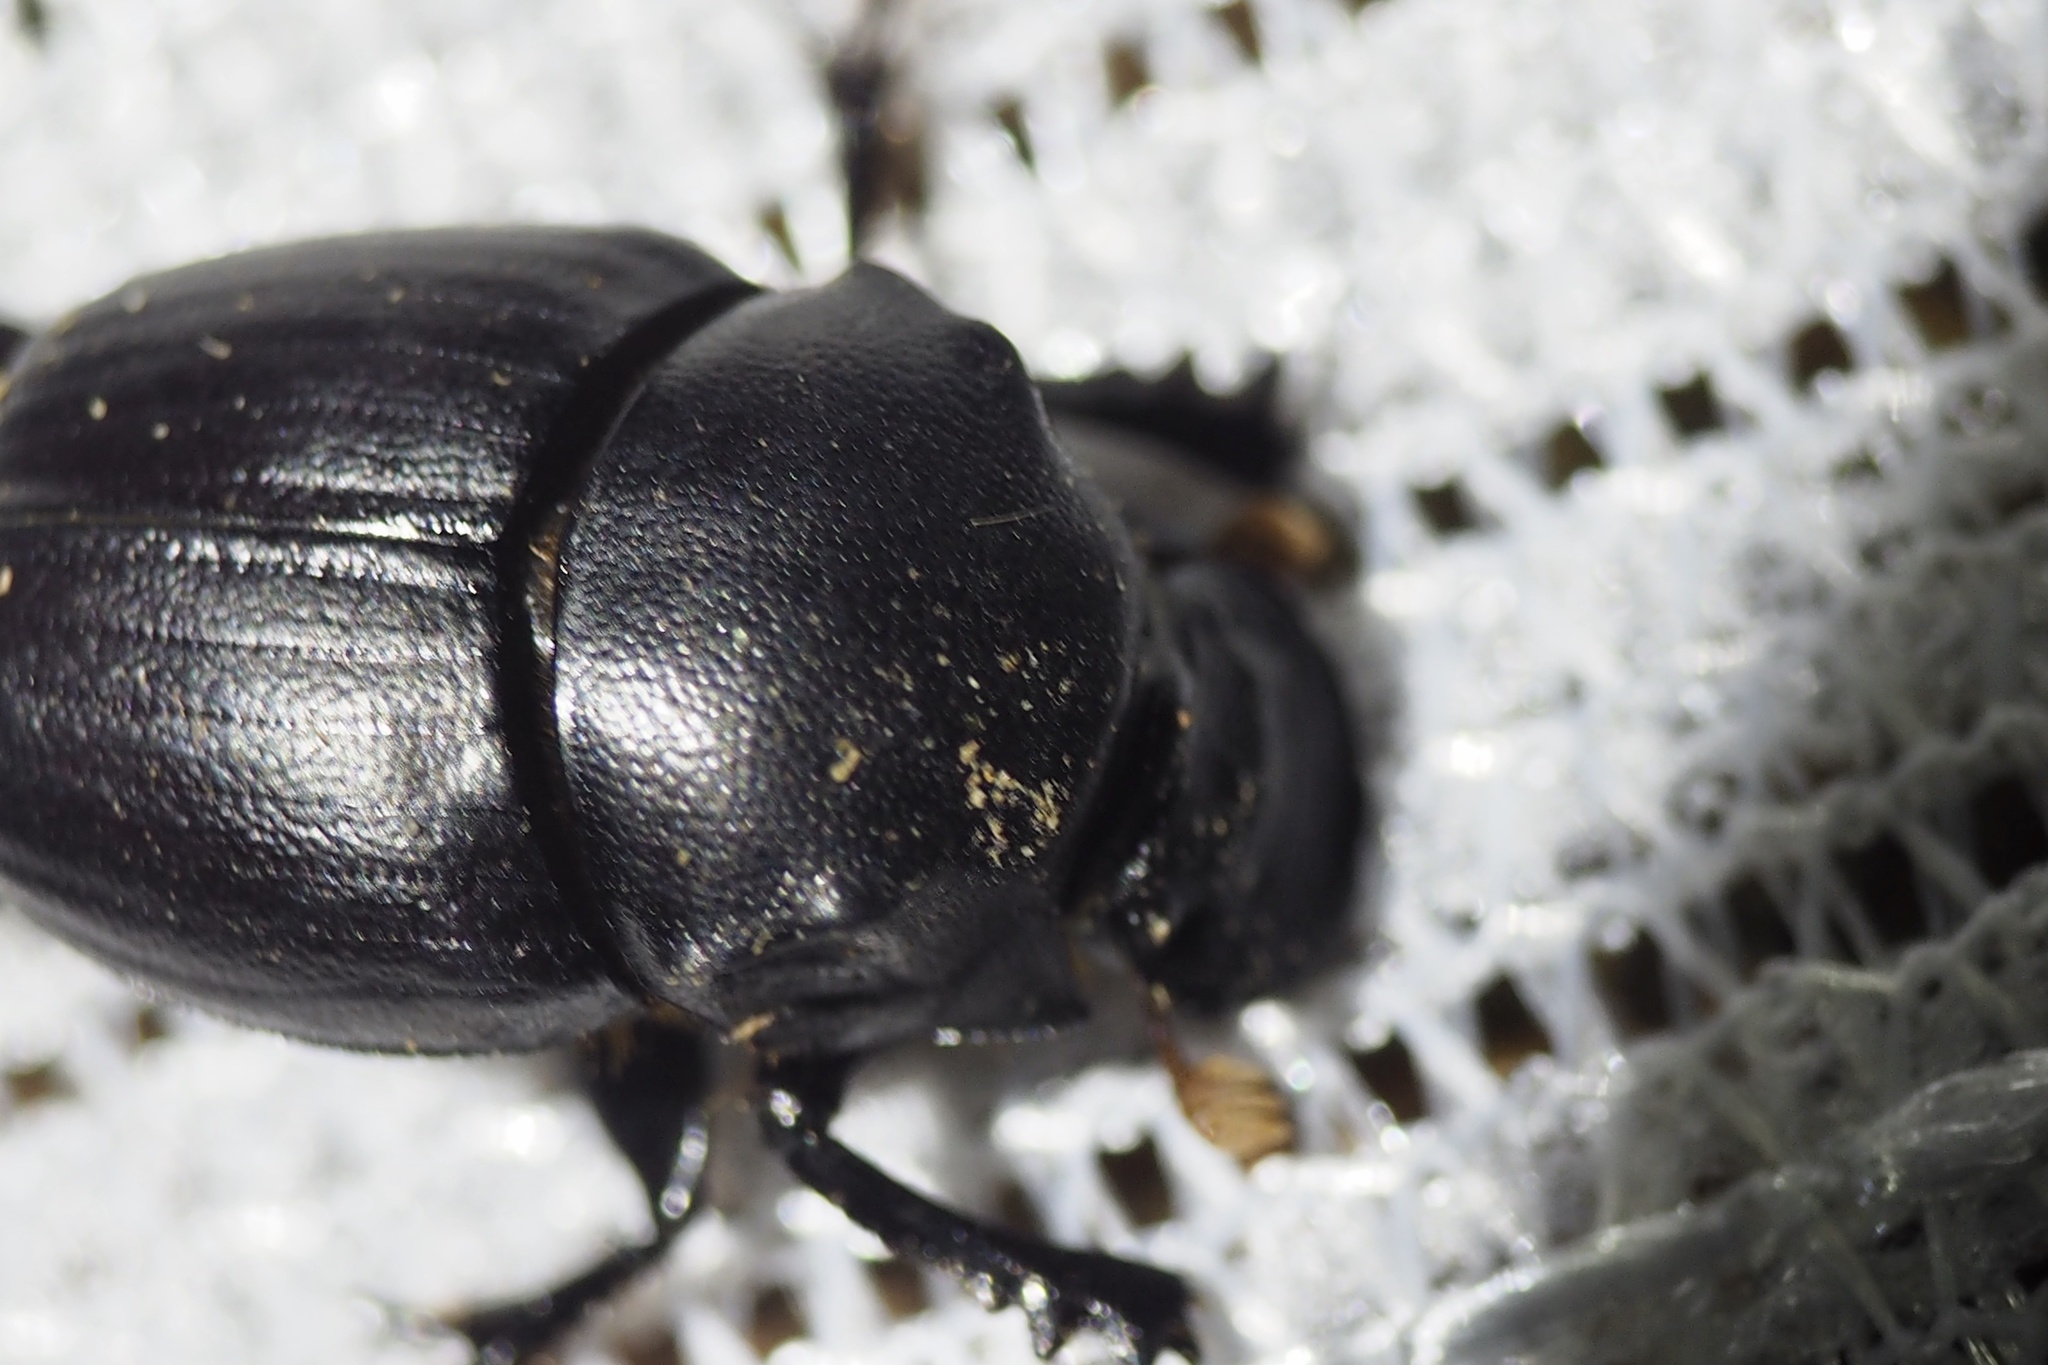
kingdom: Animalia
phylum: Arthropoda
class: Insecta
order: Coleoptera
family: Scarabaeidae
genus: Onthophagus
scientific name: Onthophagus lenzii
